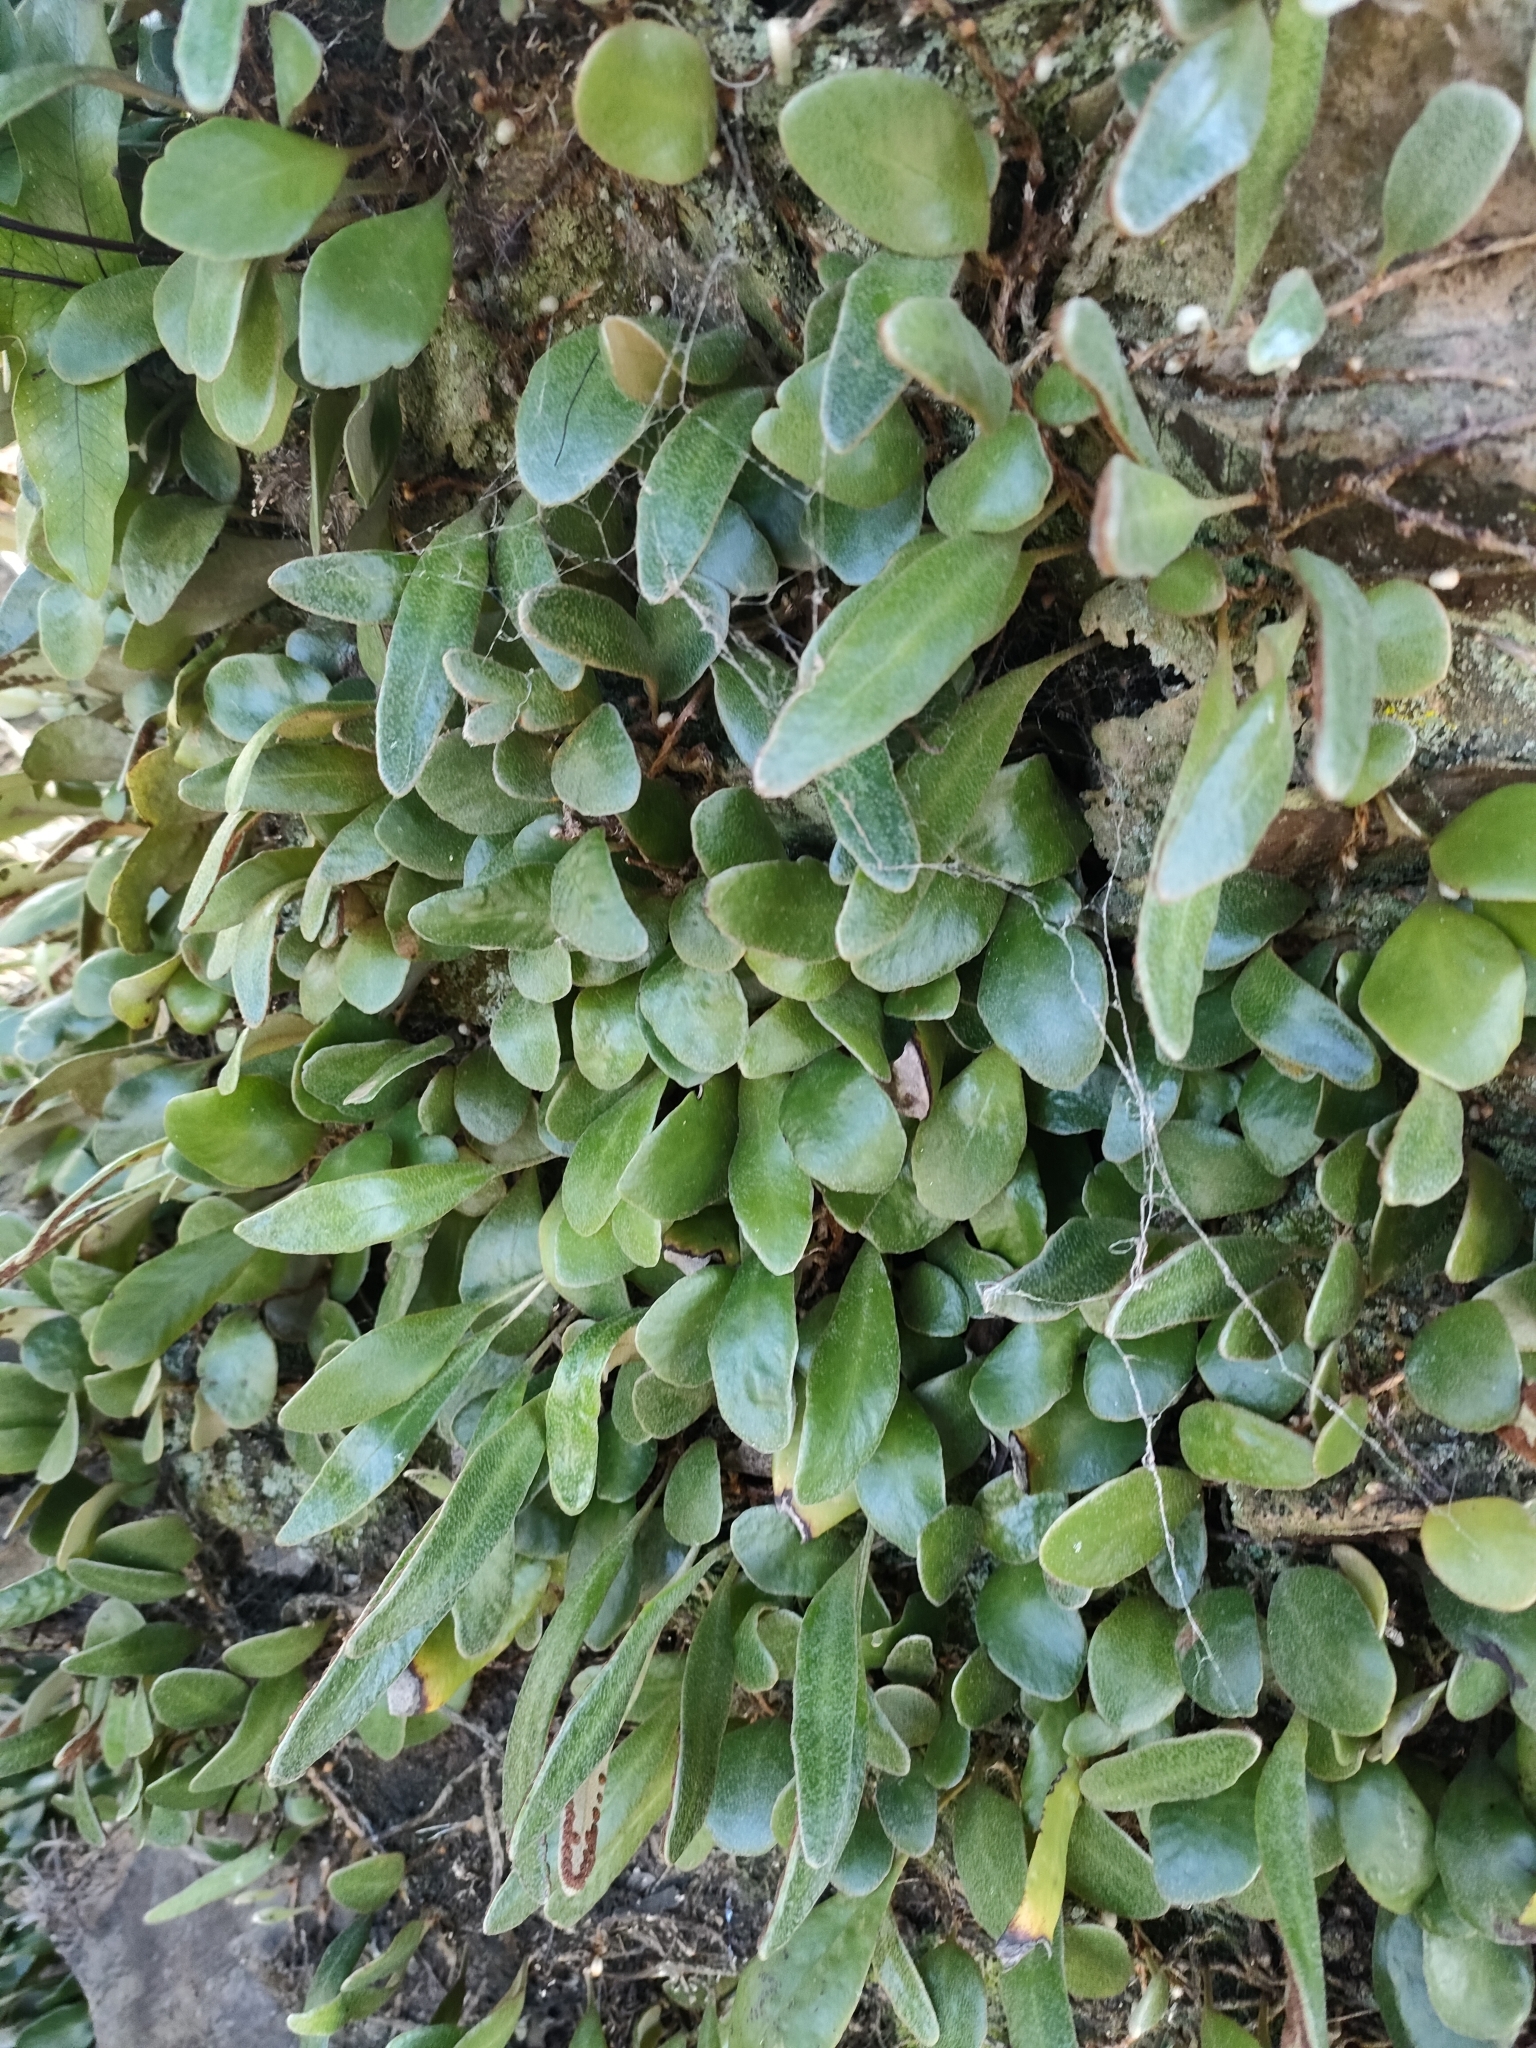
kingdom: Plantae
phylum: Tracheophyta
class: Polypodiopsida
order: Polypodiales
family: Polypodiaceae
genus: Pyrrosia
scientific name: Pyrrosia eleagnifolia
